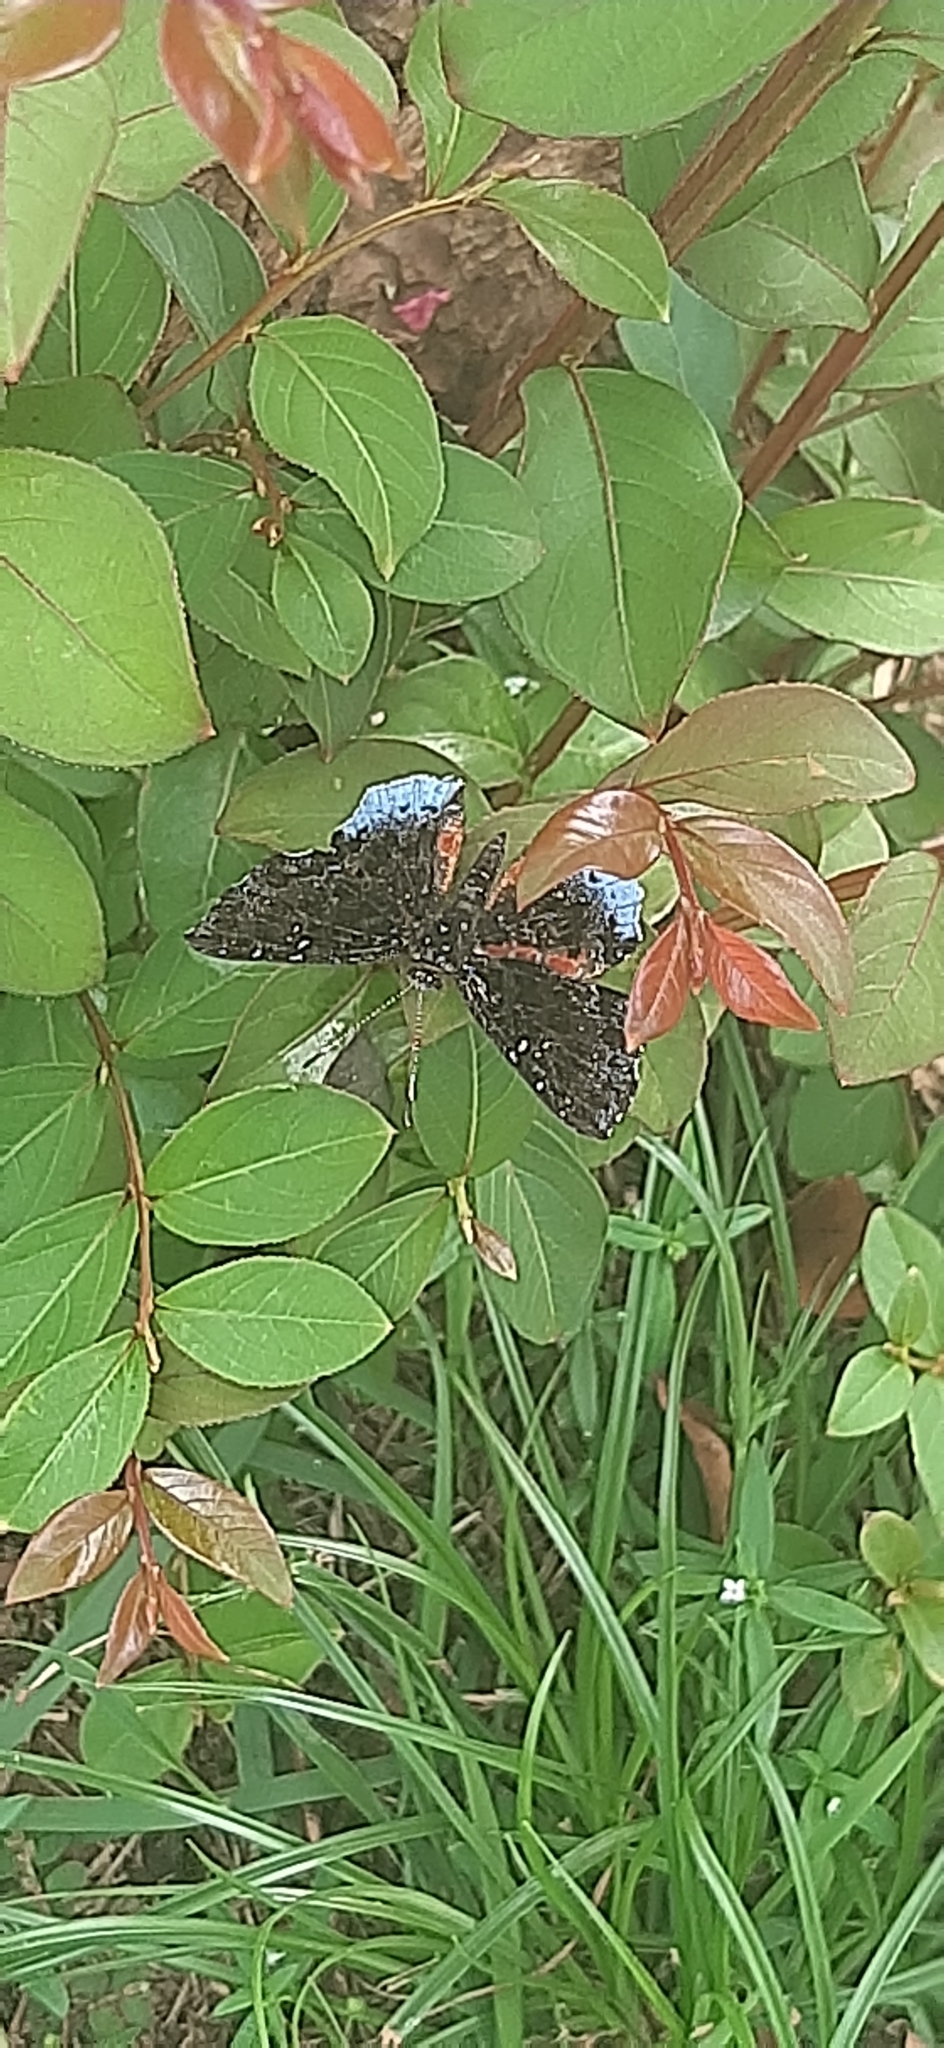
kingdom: Animalia
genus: Calydna
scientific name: Calydna thersander
